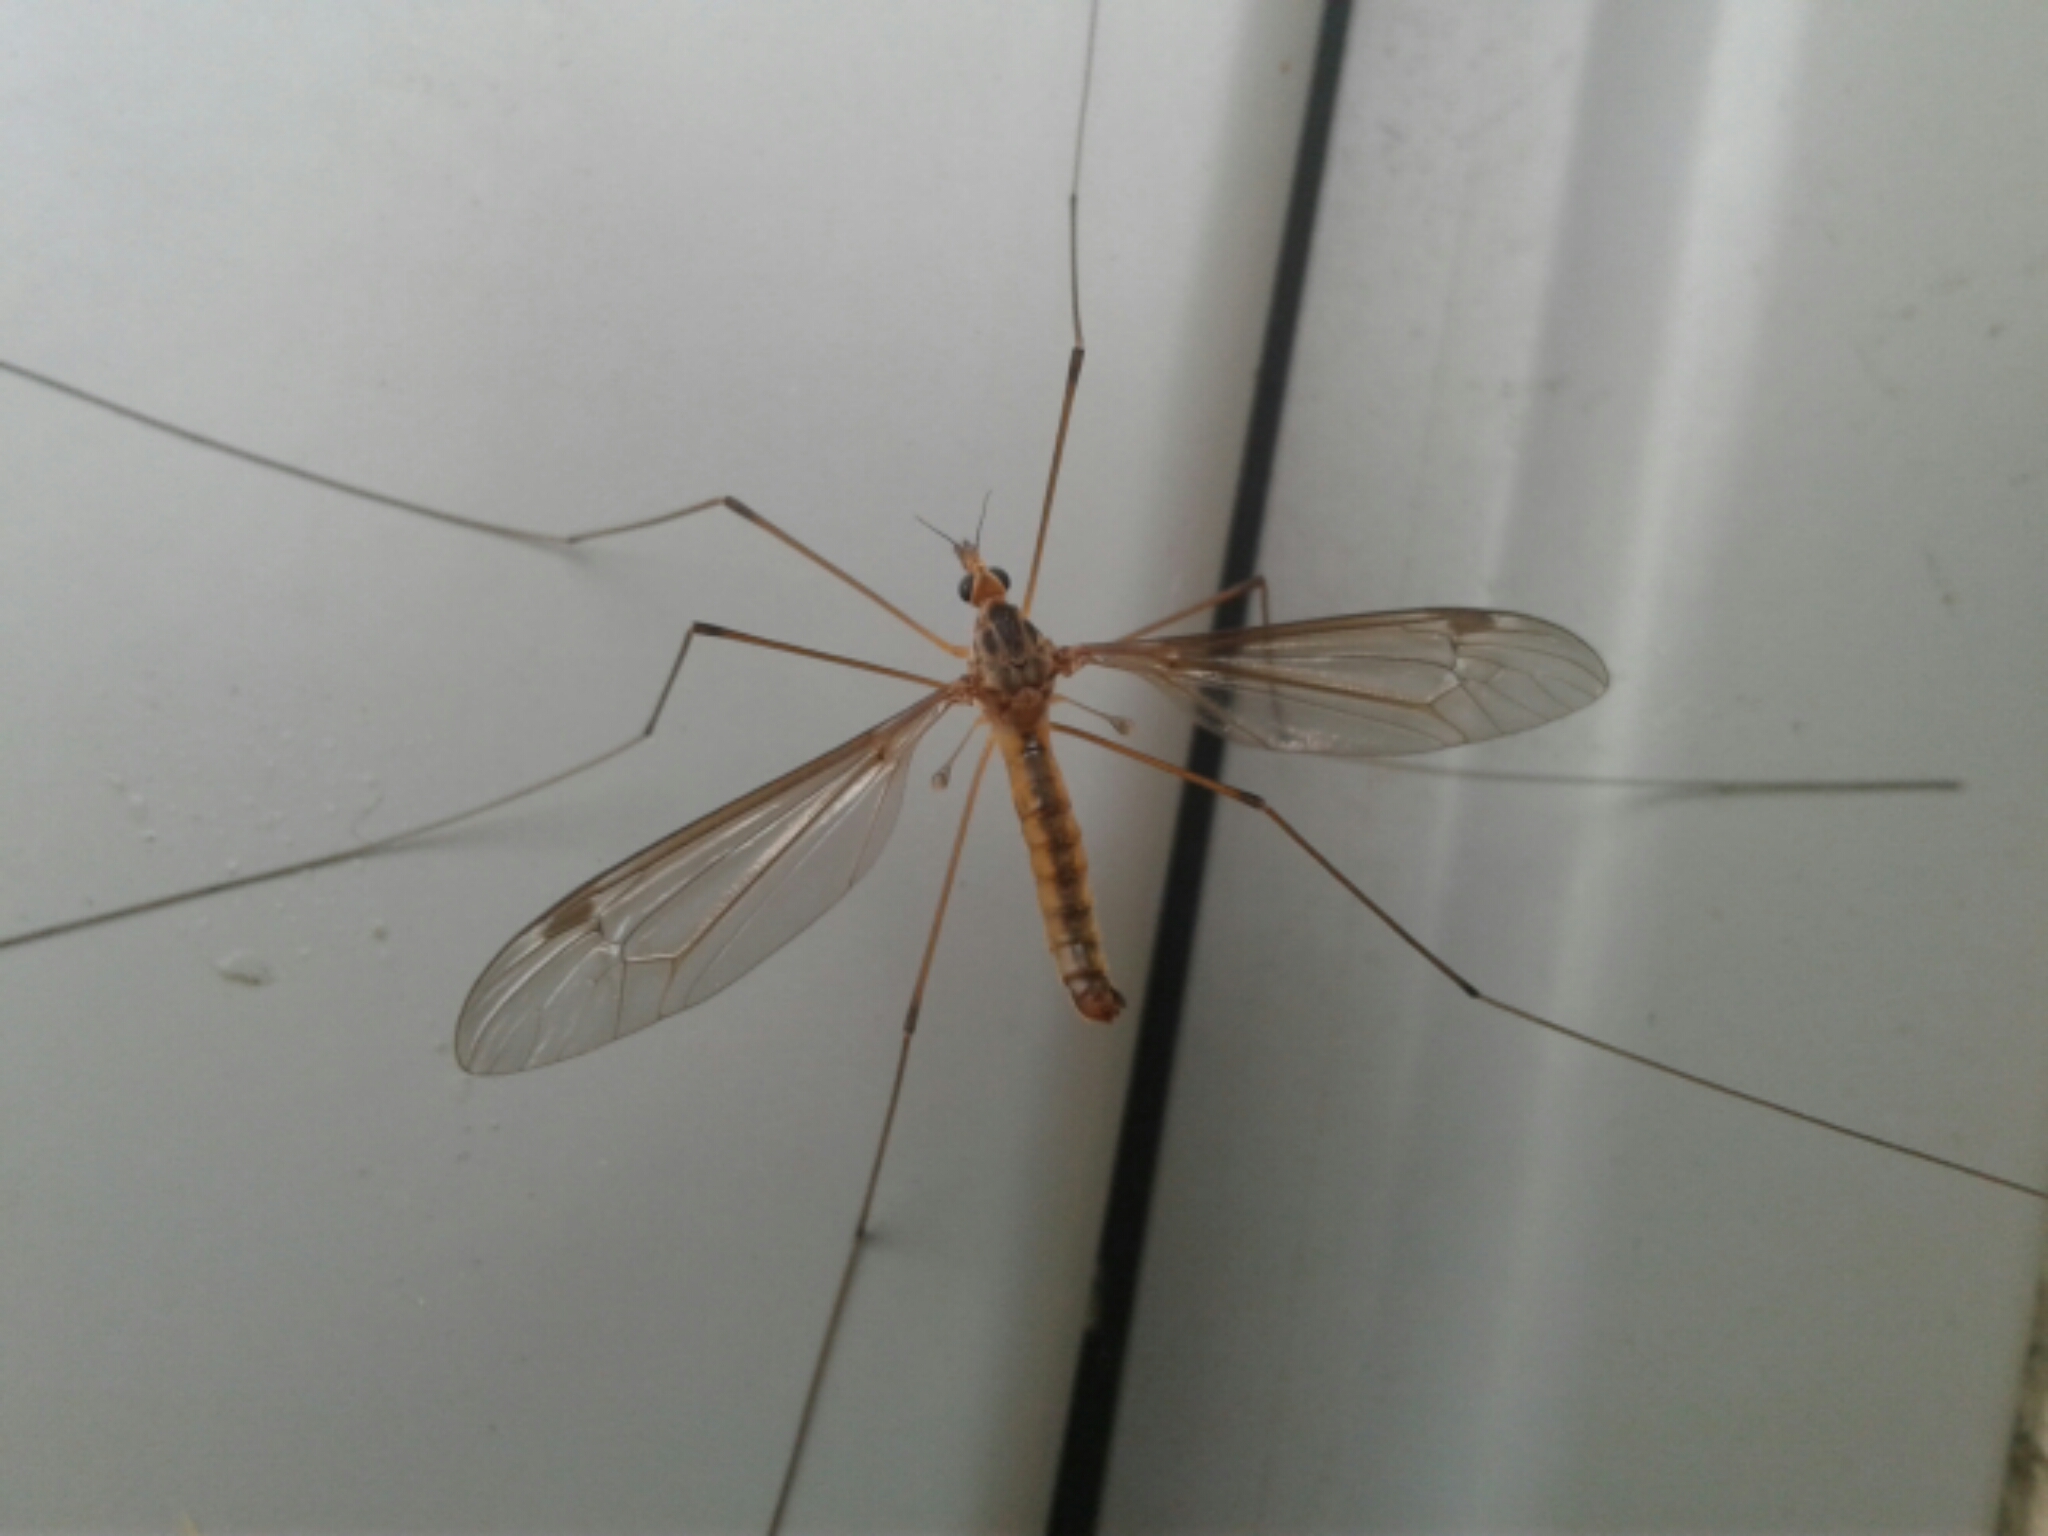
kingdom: Animalia
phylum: Arthropoda
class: Insecta
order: Diptera
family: Tipulidae
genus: Leptotarsus
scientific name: Leptotarsus
